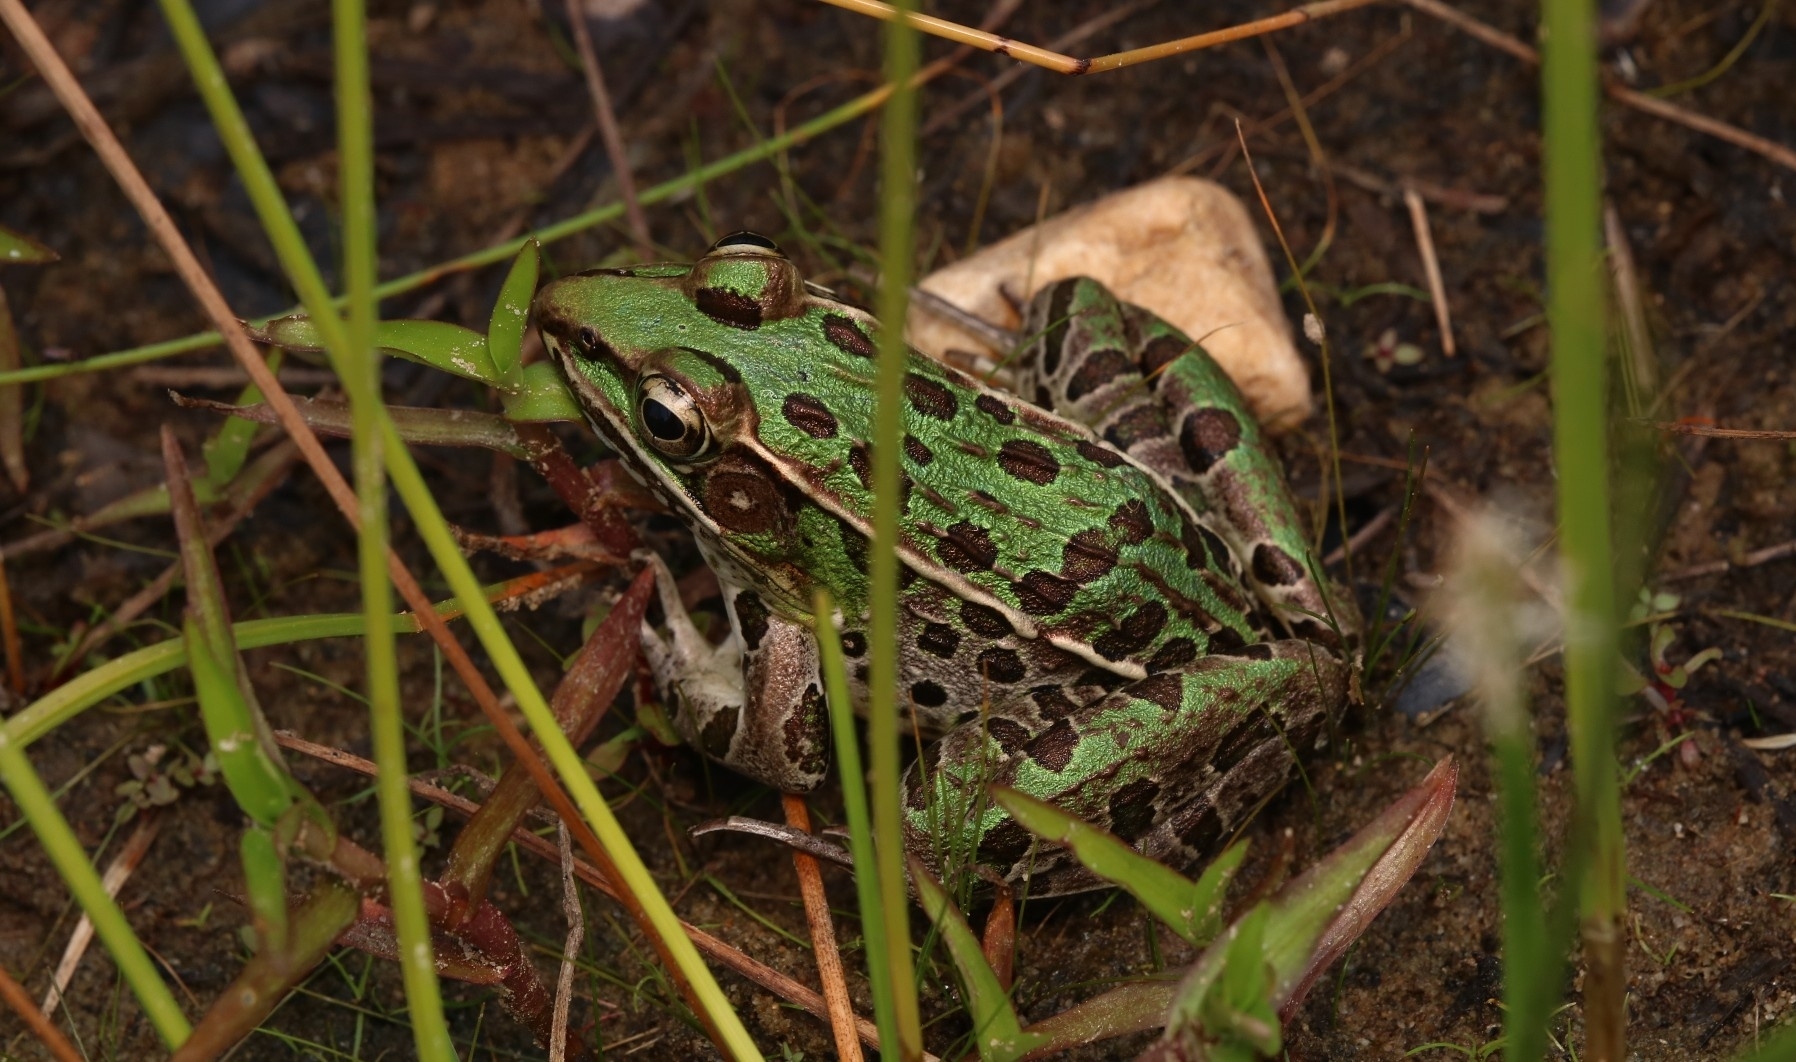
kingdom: Animalia
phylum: Chordata
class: Amphibia
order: Anura
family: Ranidae
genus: Lithobates
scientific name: Lithobates sphenocephalus
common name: Southern leopard frog
